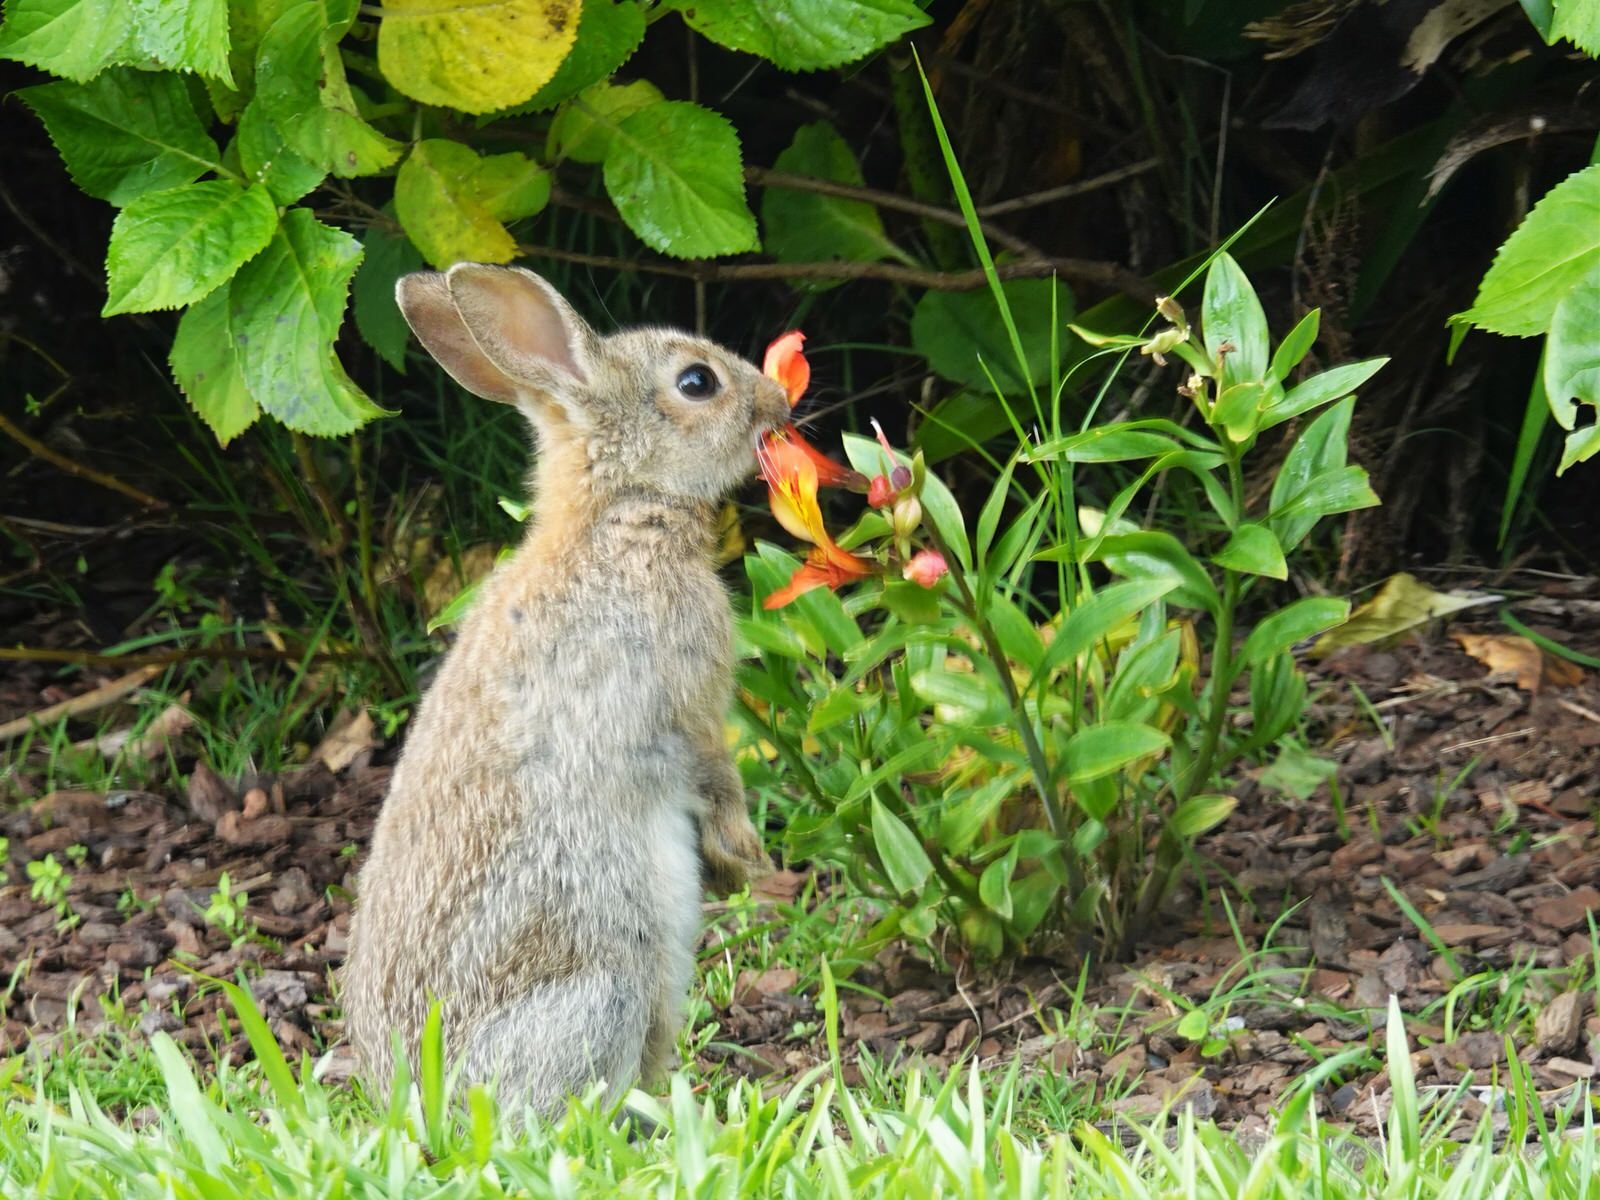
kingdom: Animalia
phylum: Chordata
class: Mammalia
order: Lagomorpha
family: Leporidae
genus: Oryctolagus
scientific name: Oryctolagus cuniculus
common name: European rabbit
